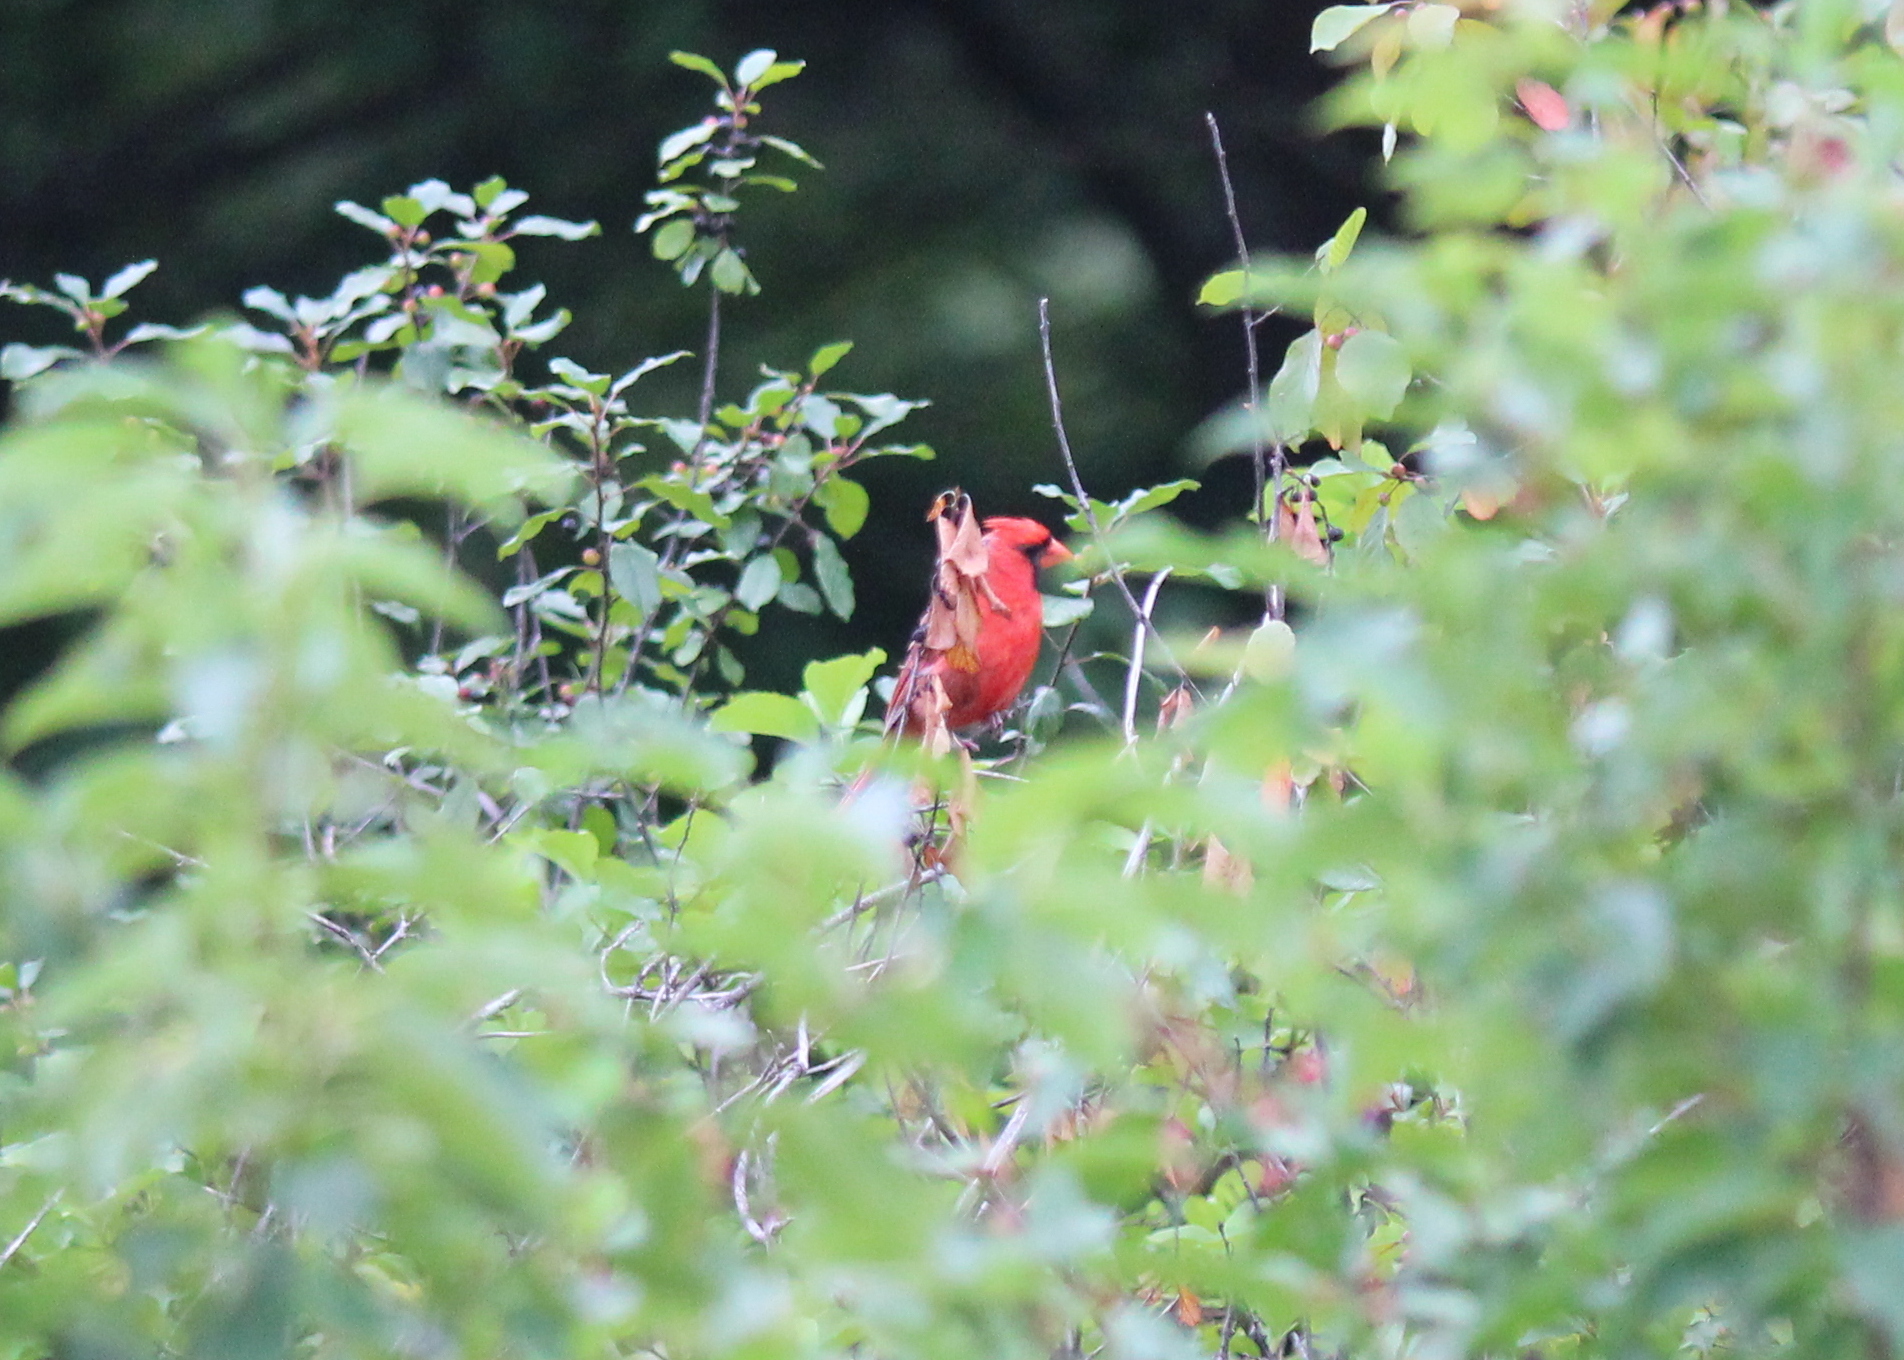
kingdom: Animalia
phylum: Chordata
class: Aves
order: Passeriformes
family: Cardinalidae
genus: Cardinalis
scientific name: Cardinalis cardinalis
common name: Northern cardinal
